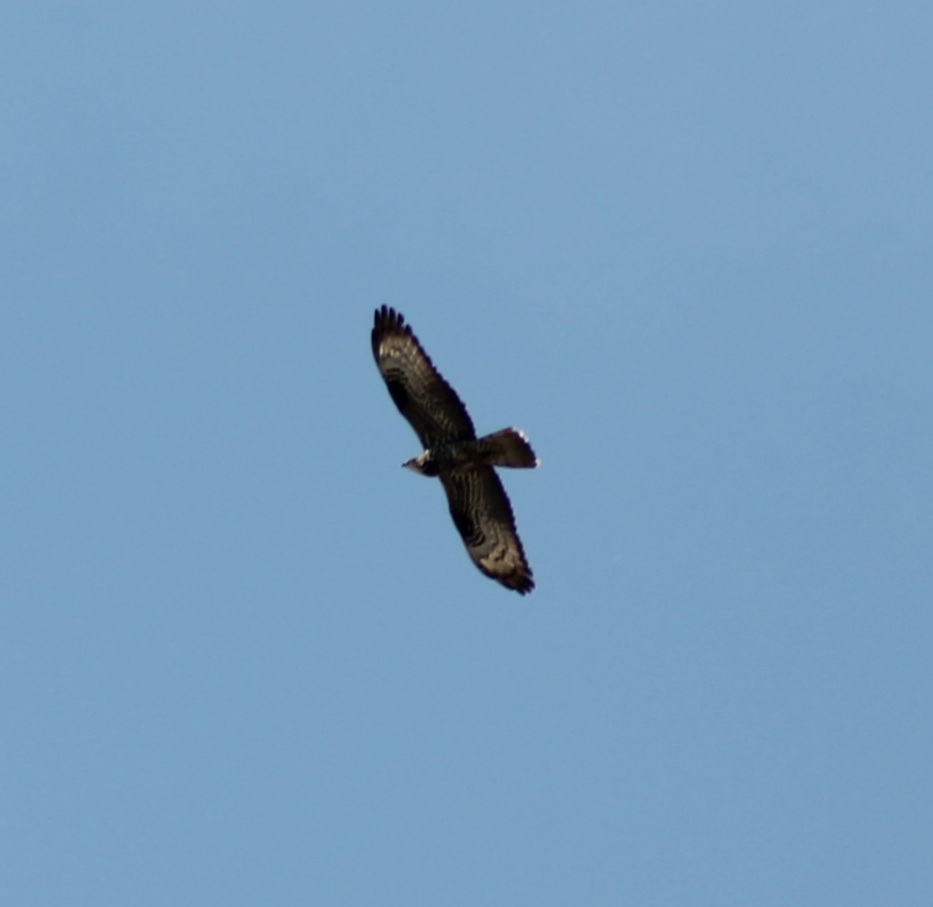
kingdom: Animalia
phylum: Chordata
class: Aves
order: Accipitriformes
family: Accipitridae
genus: Pernis
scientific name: Pernis apivorus
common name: European honey buzzard
